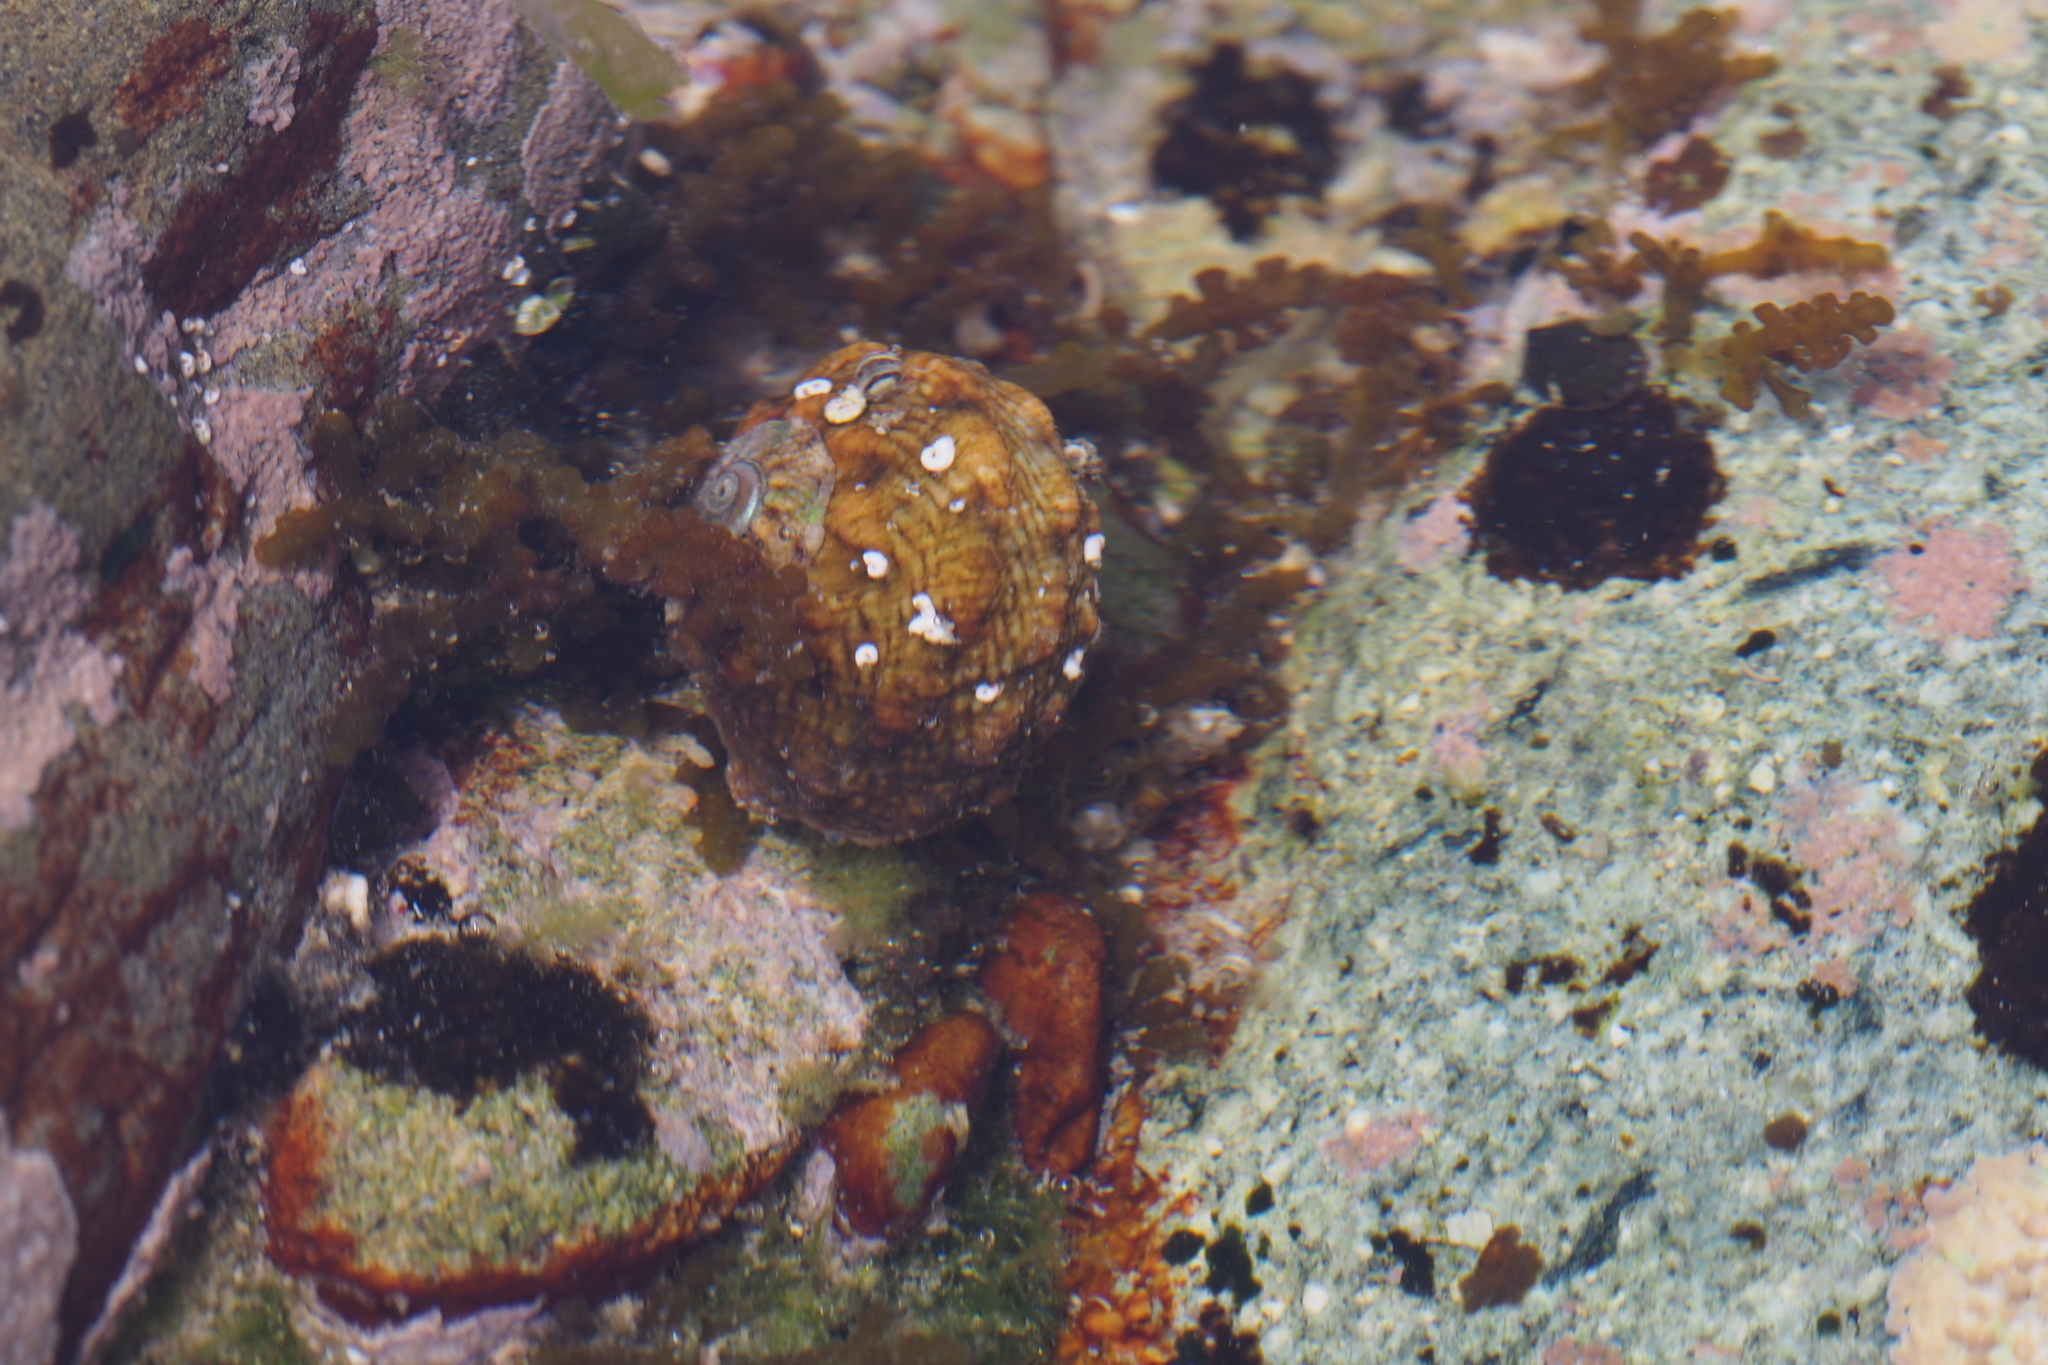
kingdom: Animalia
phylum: Mollusca
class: Gastropoda
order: Trochida
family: Turbinidae
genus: Lunella
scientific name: Lunella correensis
